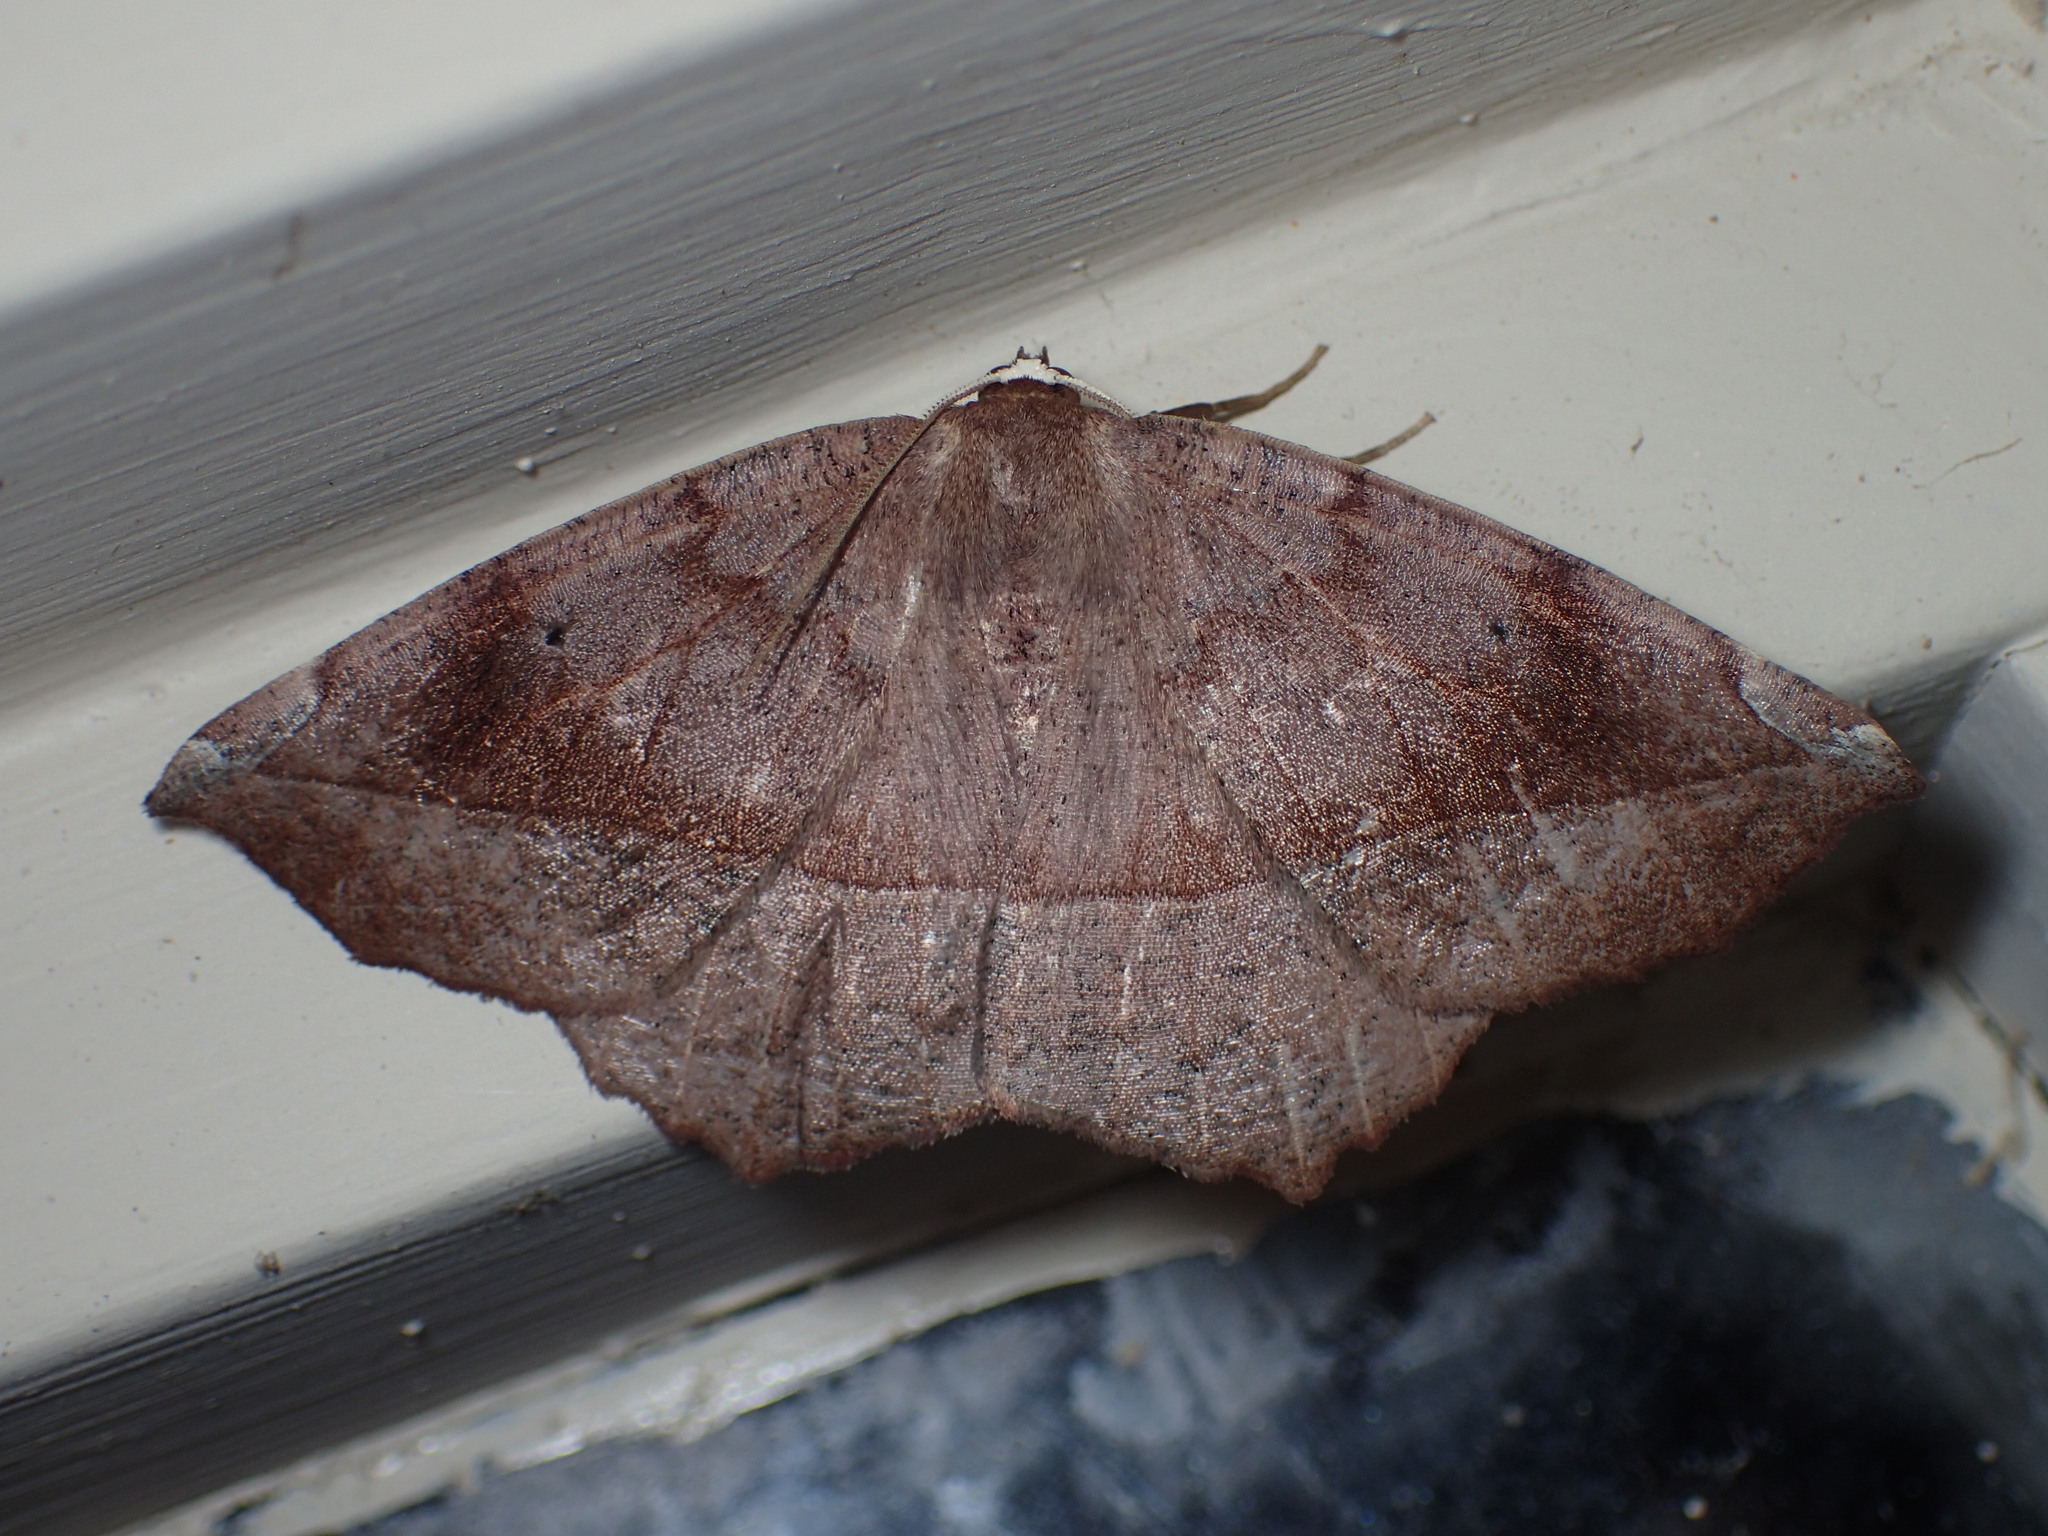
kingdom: Animalia
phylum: Arthropoda
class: Insecta
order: Lepidoptera
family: Geometridae
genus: Eutrapela
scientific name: Eutrapela clemataria
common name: Curved-toothed geometer
